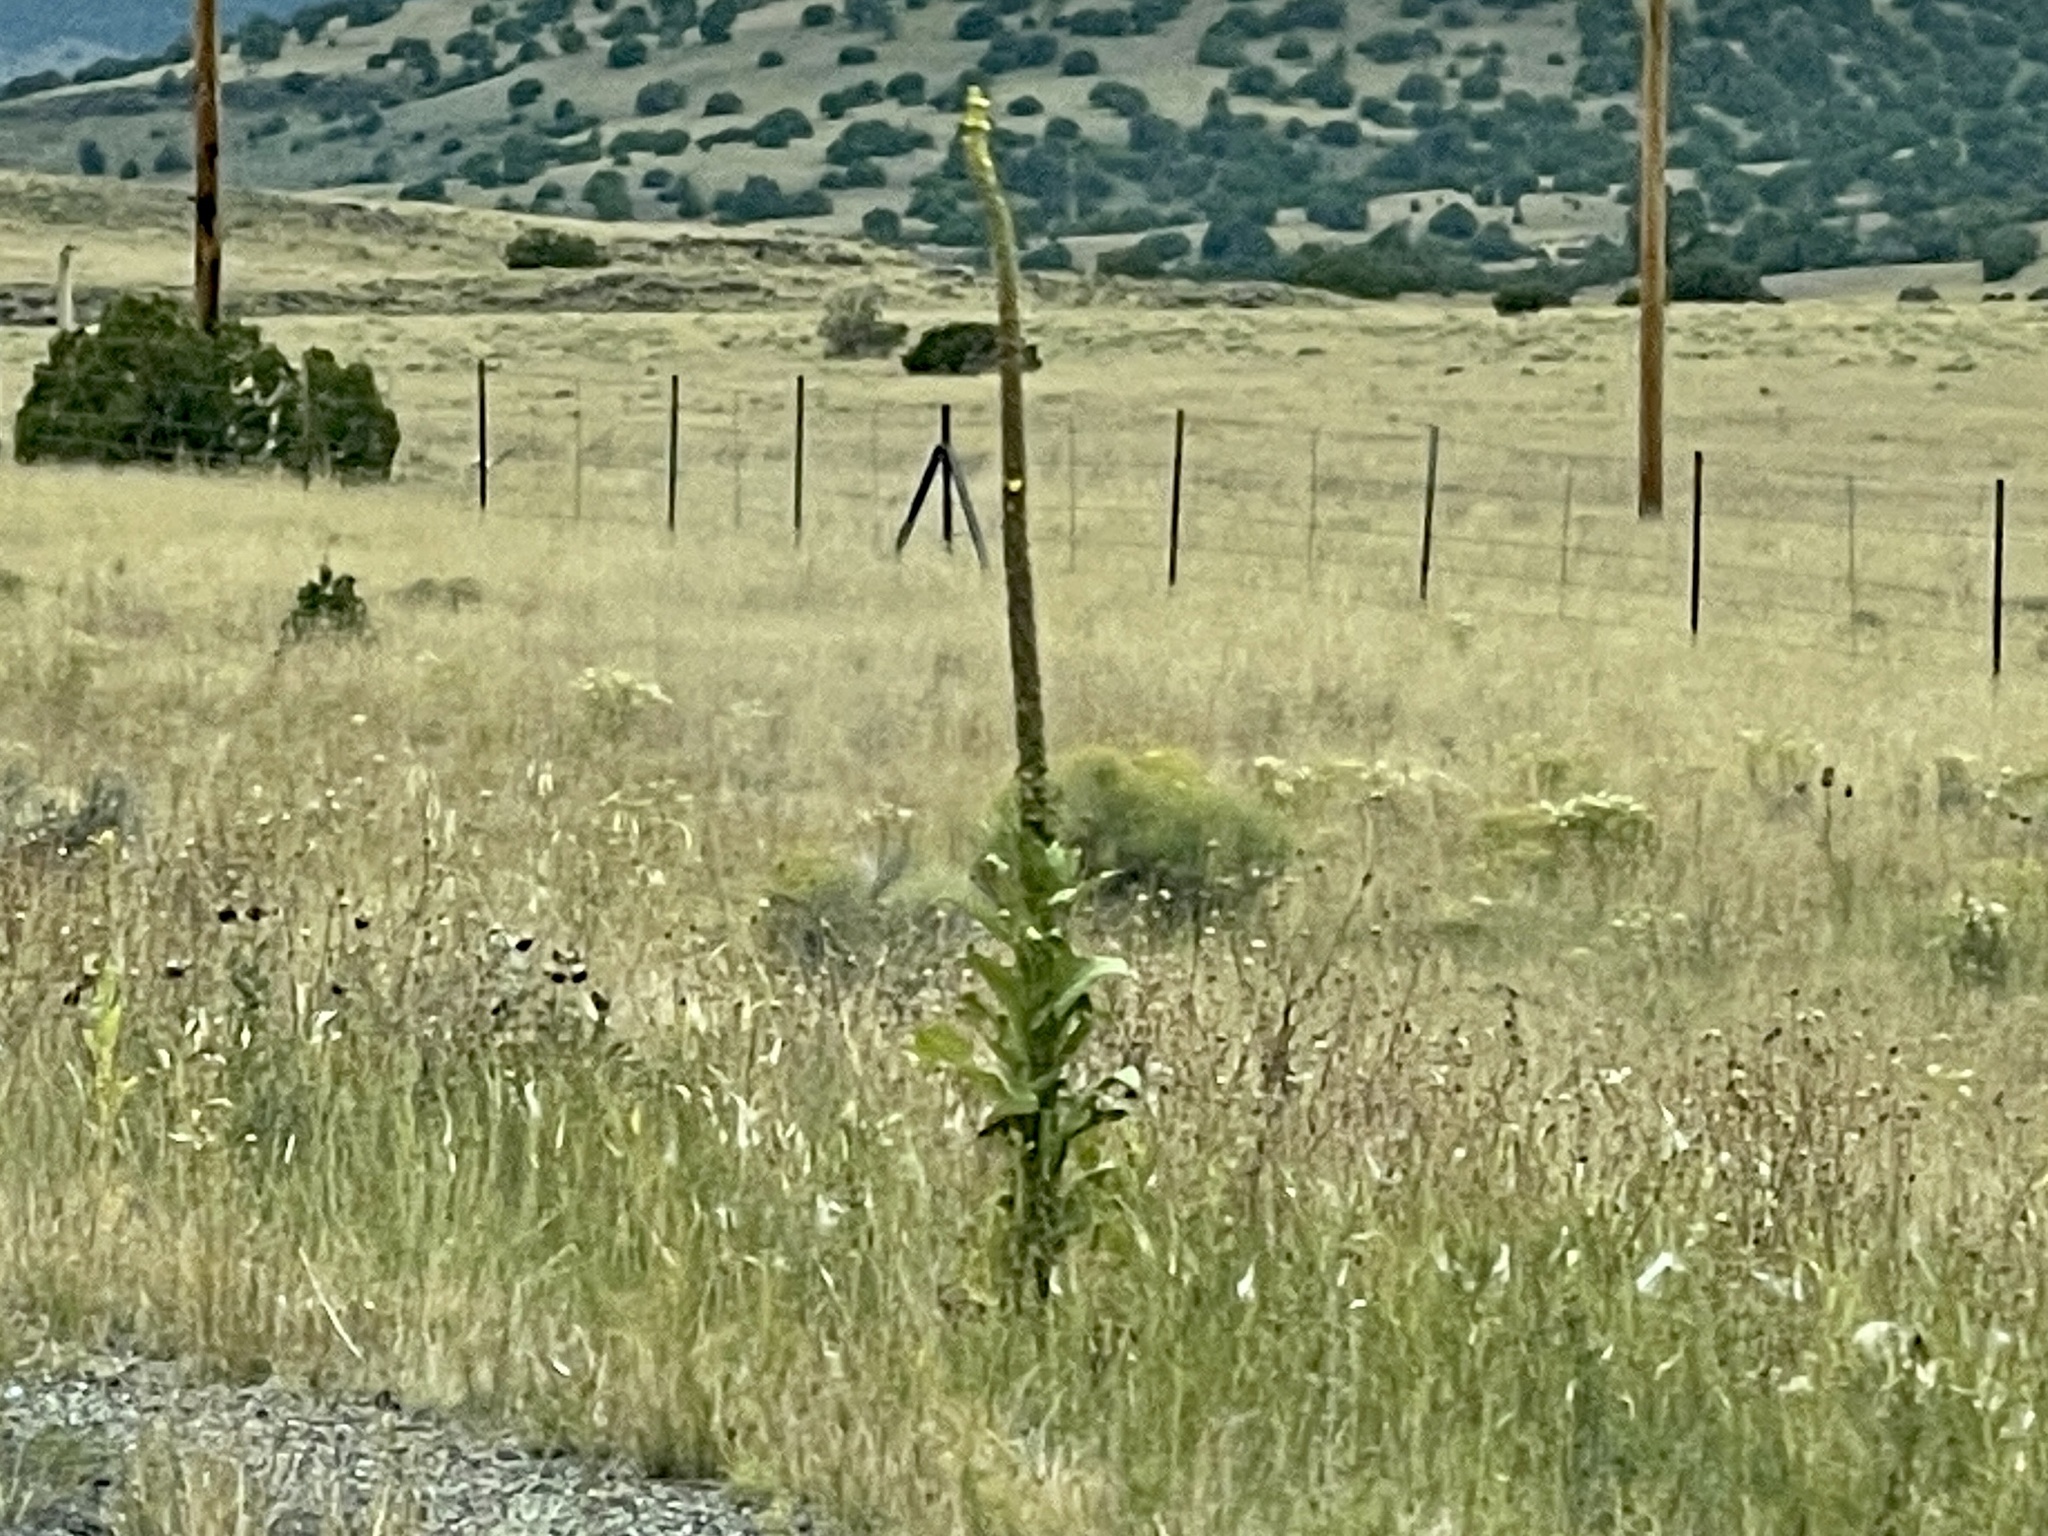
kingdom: Plantae
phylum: Tracheophyta
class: Magnoliopsida
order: Lamiales
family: Scrophulariaceae
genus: Verbascum
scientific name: Verbascum thapsus
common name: Common mullein
